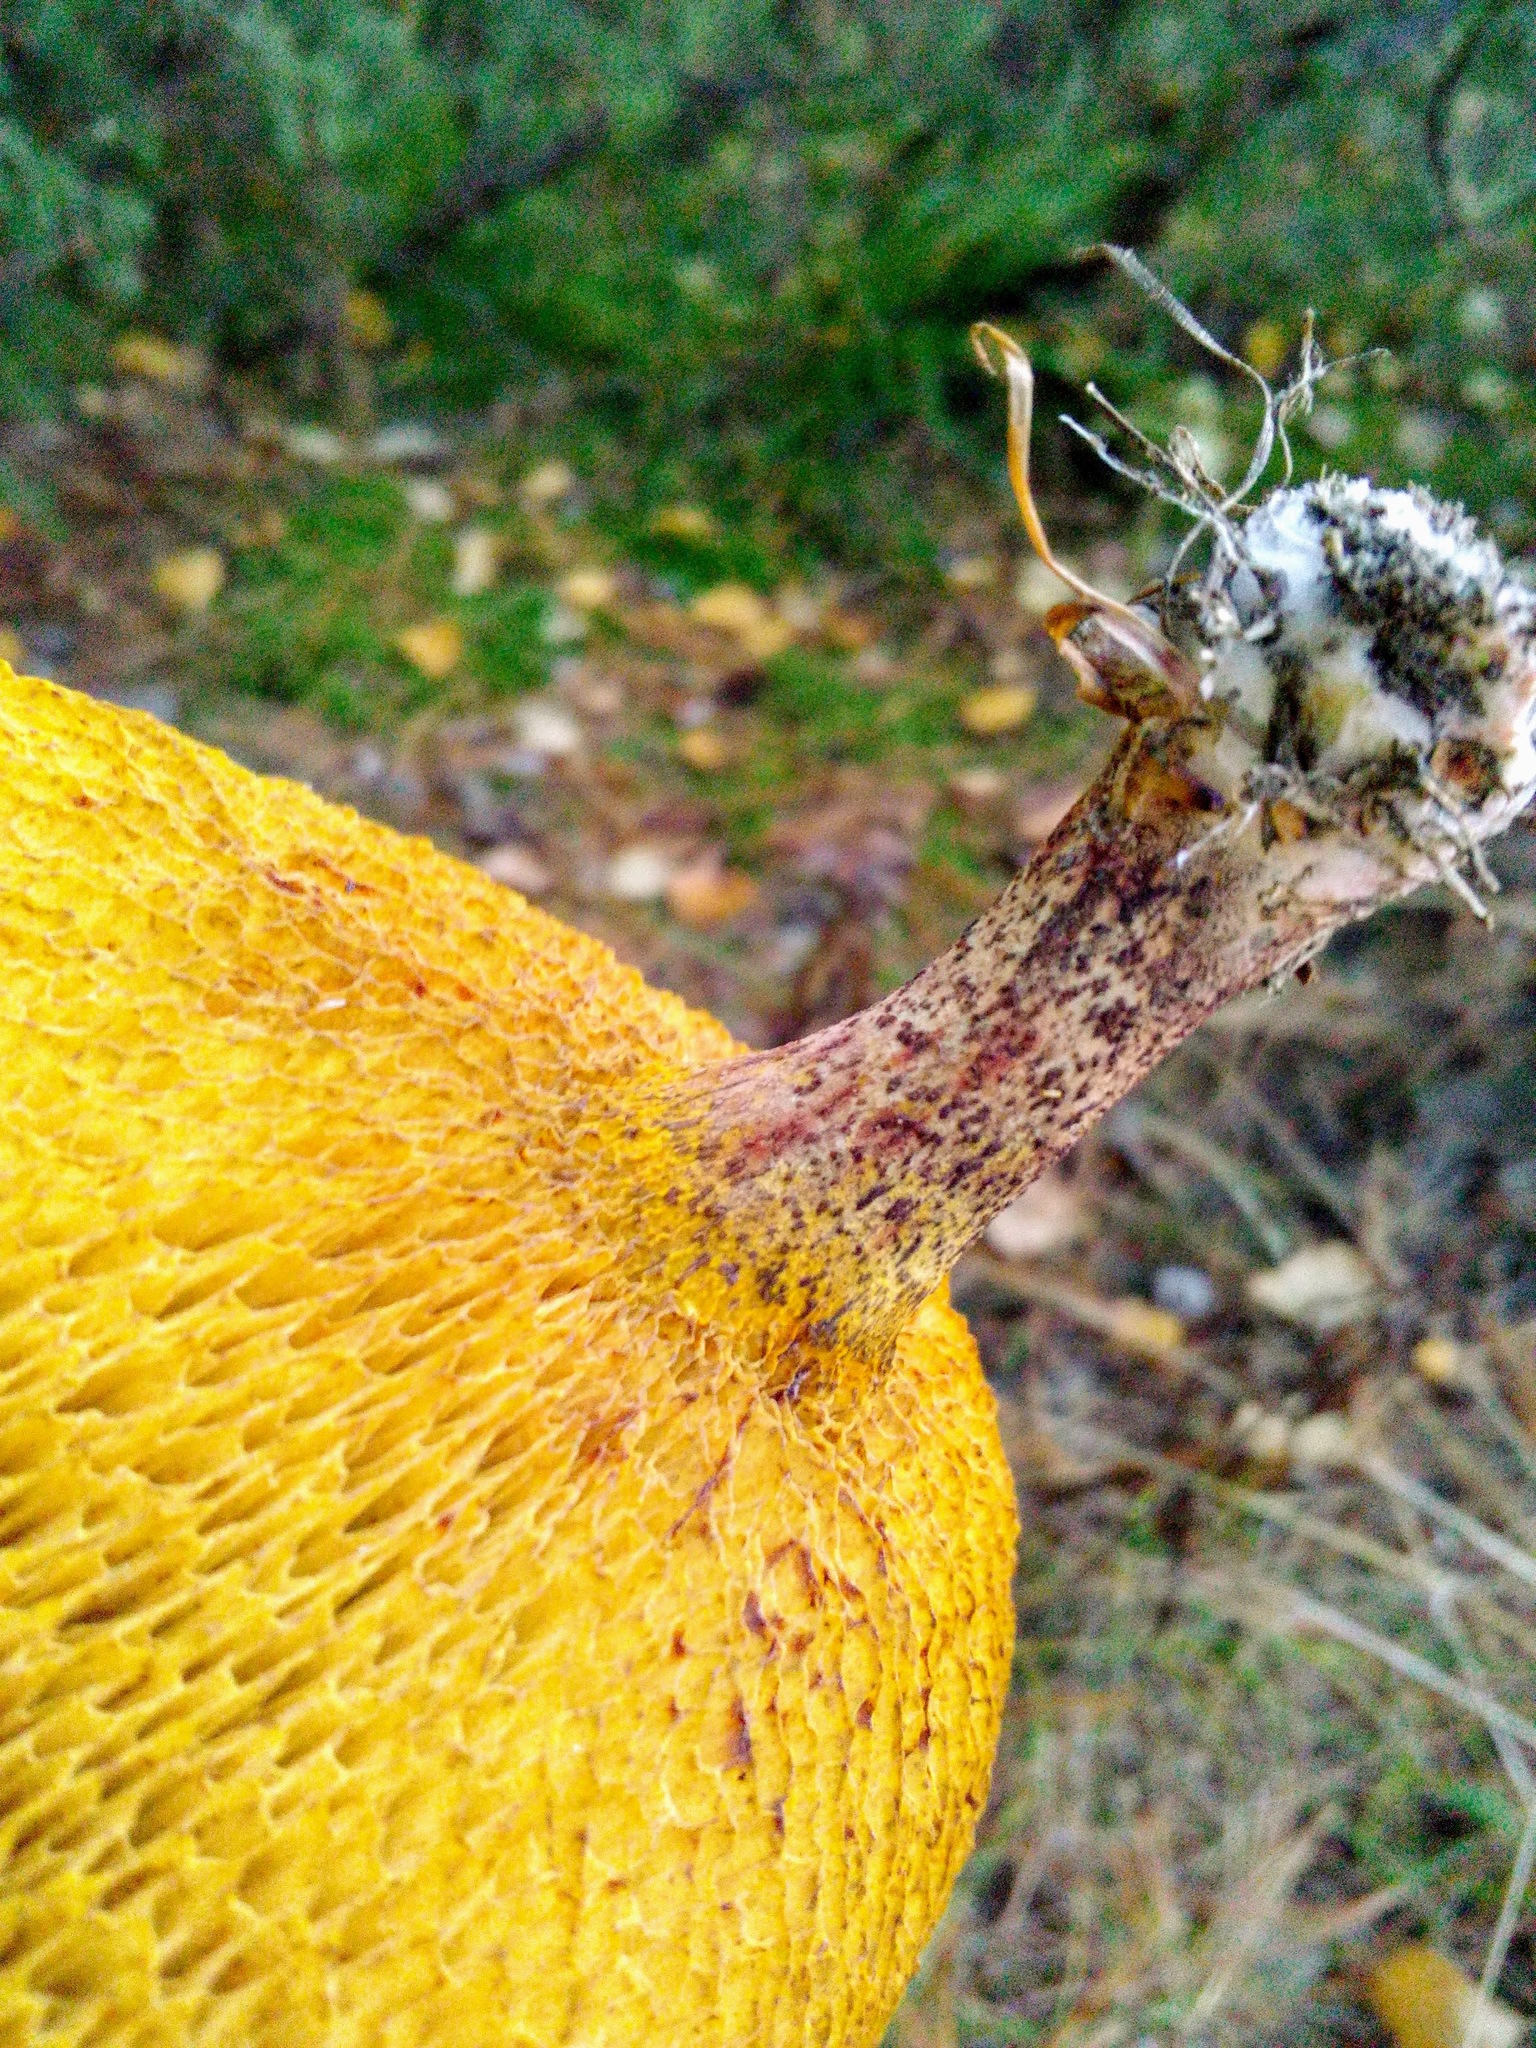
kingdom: Fungi
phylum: Basidiomycota
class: Agaricomycetes
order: Boletales
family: Suillaceae
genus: Suillus
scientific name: Suillus americanus
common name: Chicken fat mushroom
